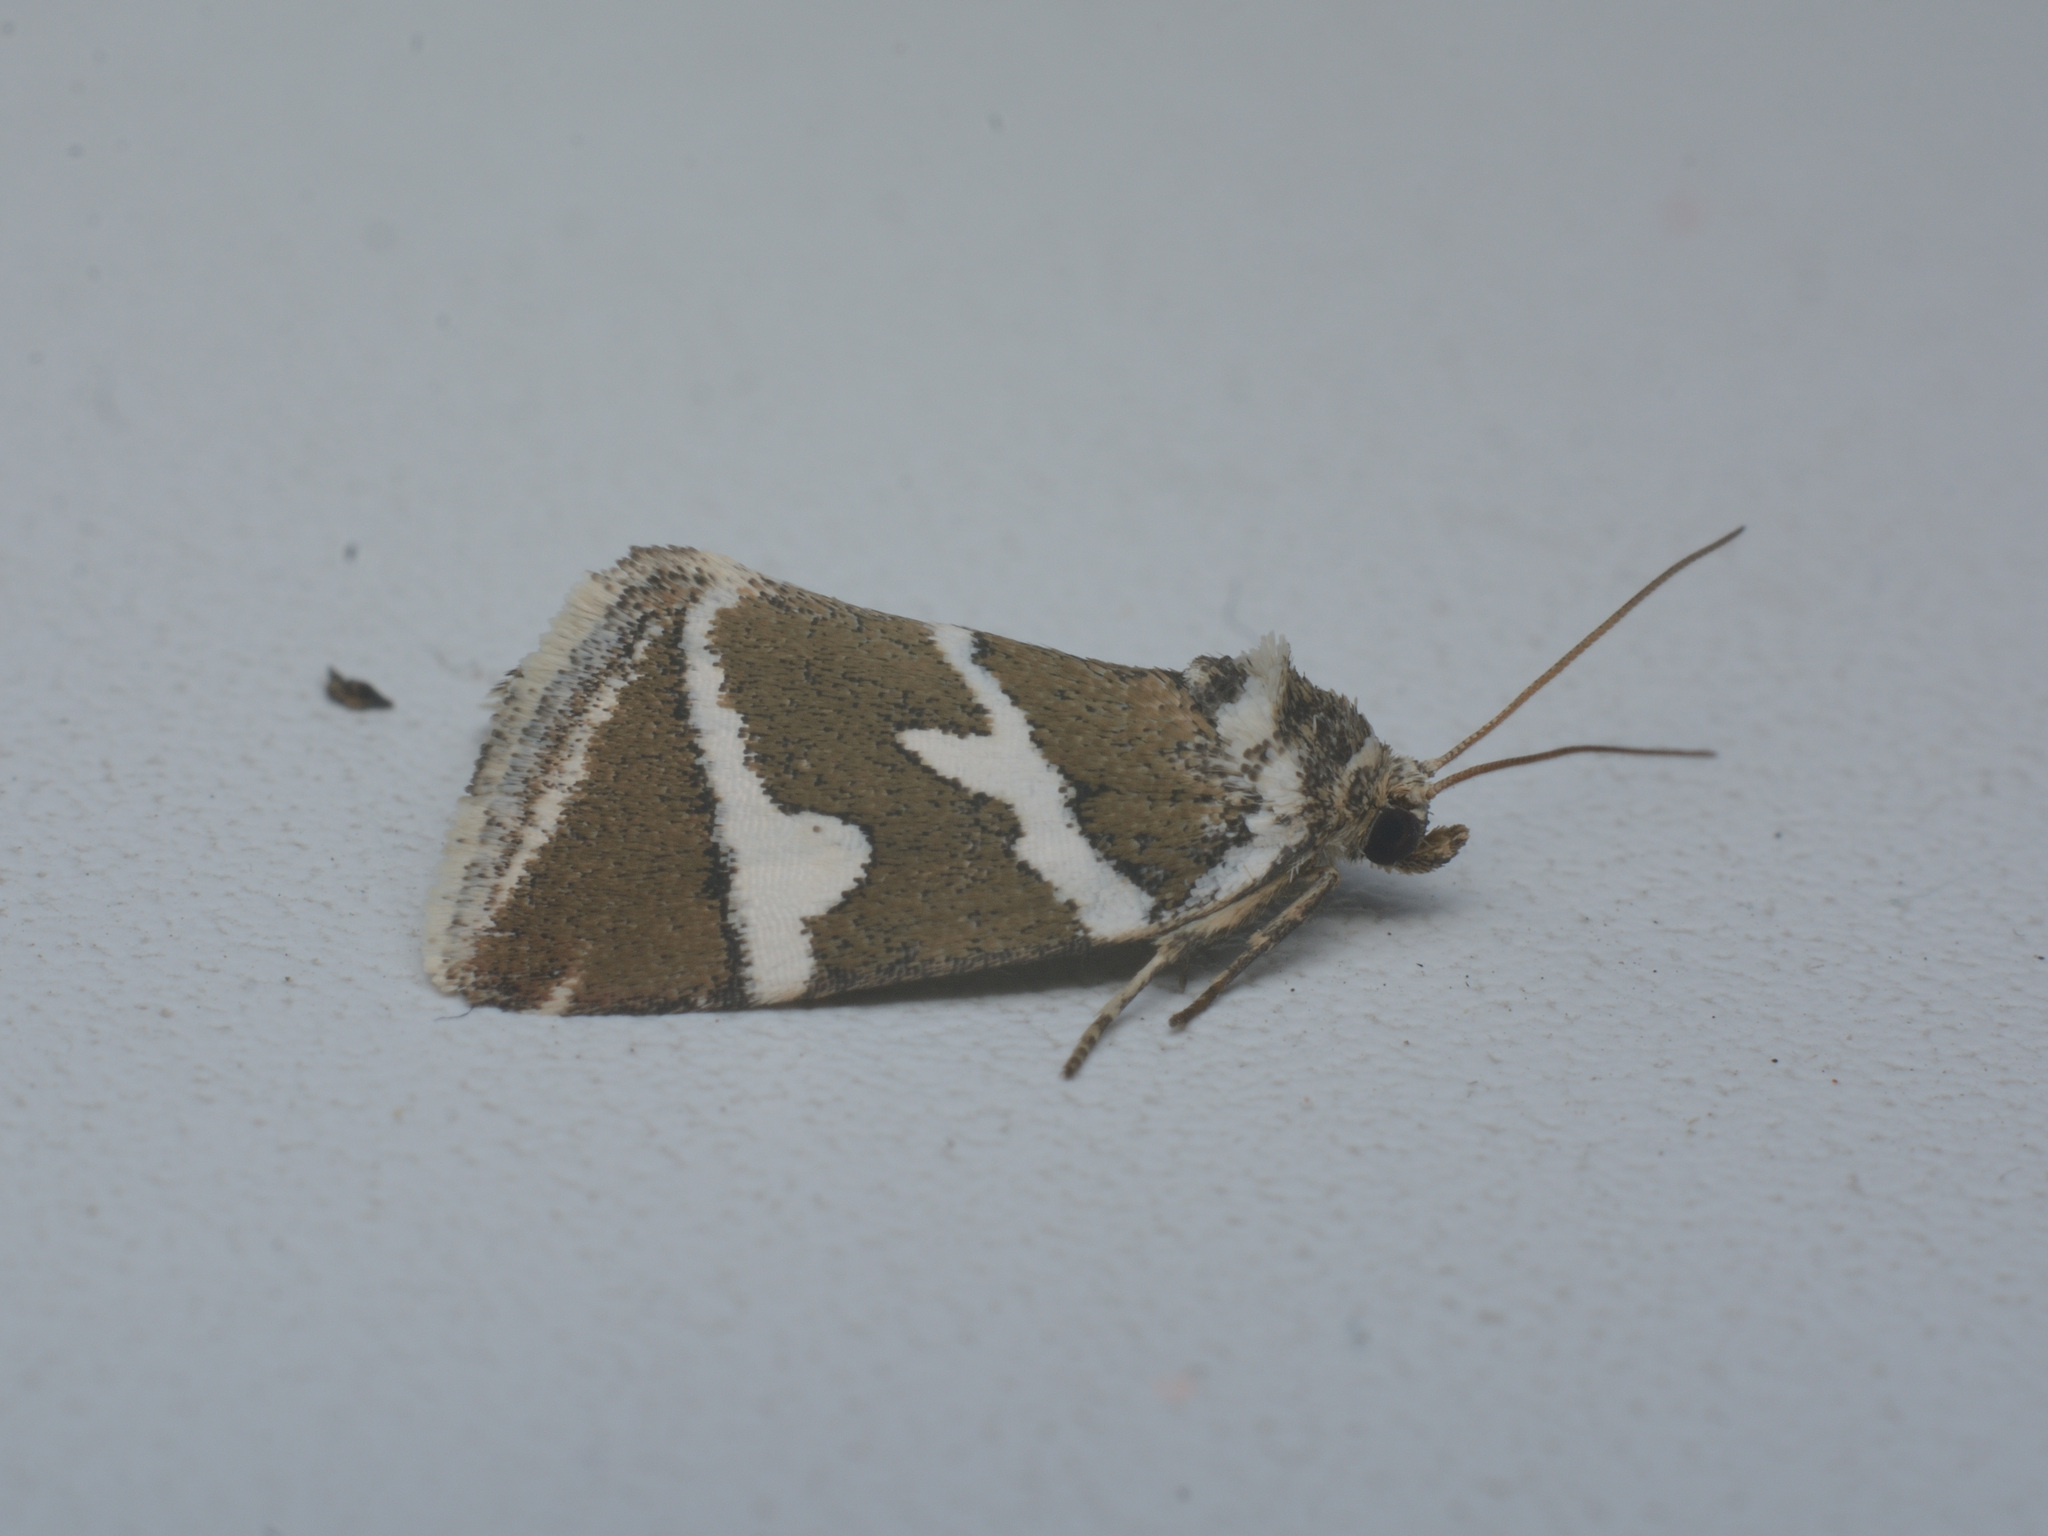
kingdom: Animalia
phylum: Arthropoda
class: Insecta
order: Lepidoptera
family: Noctuidae
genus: Deltote
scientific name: Deltote bankiana
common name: Silver barred
